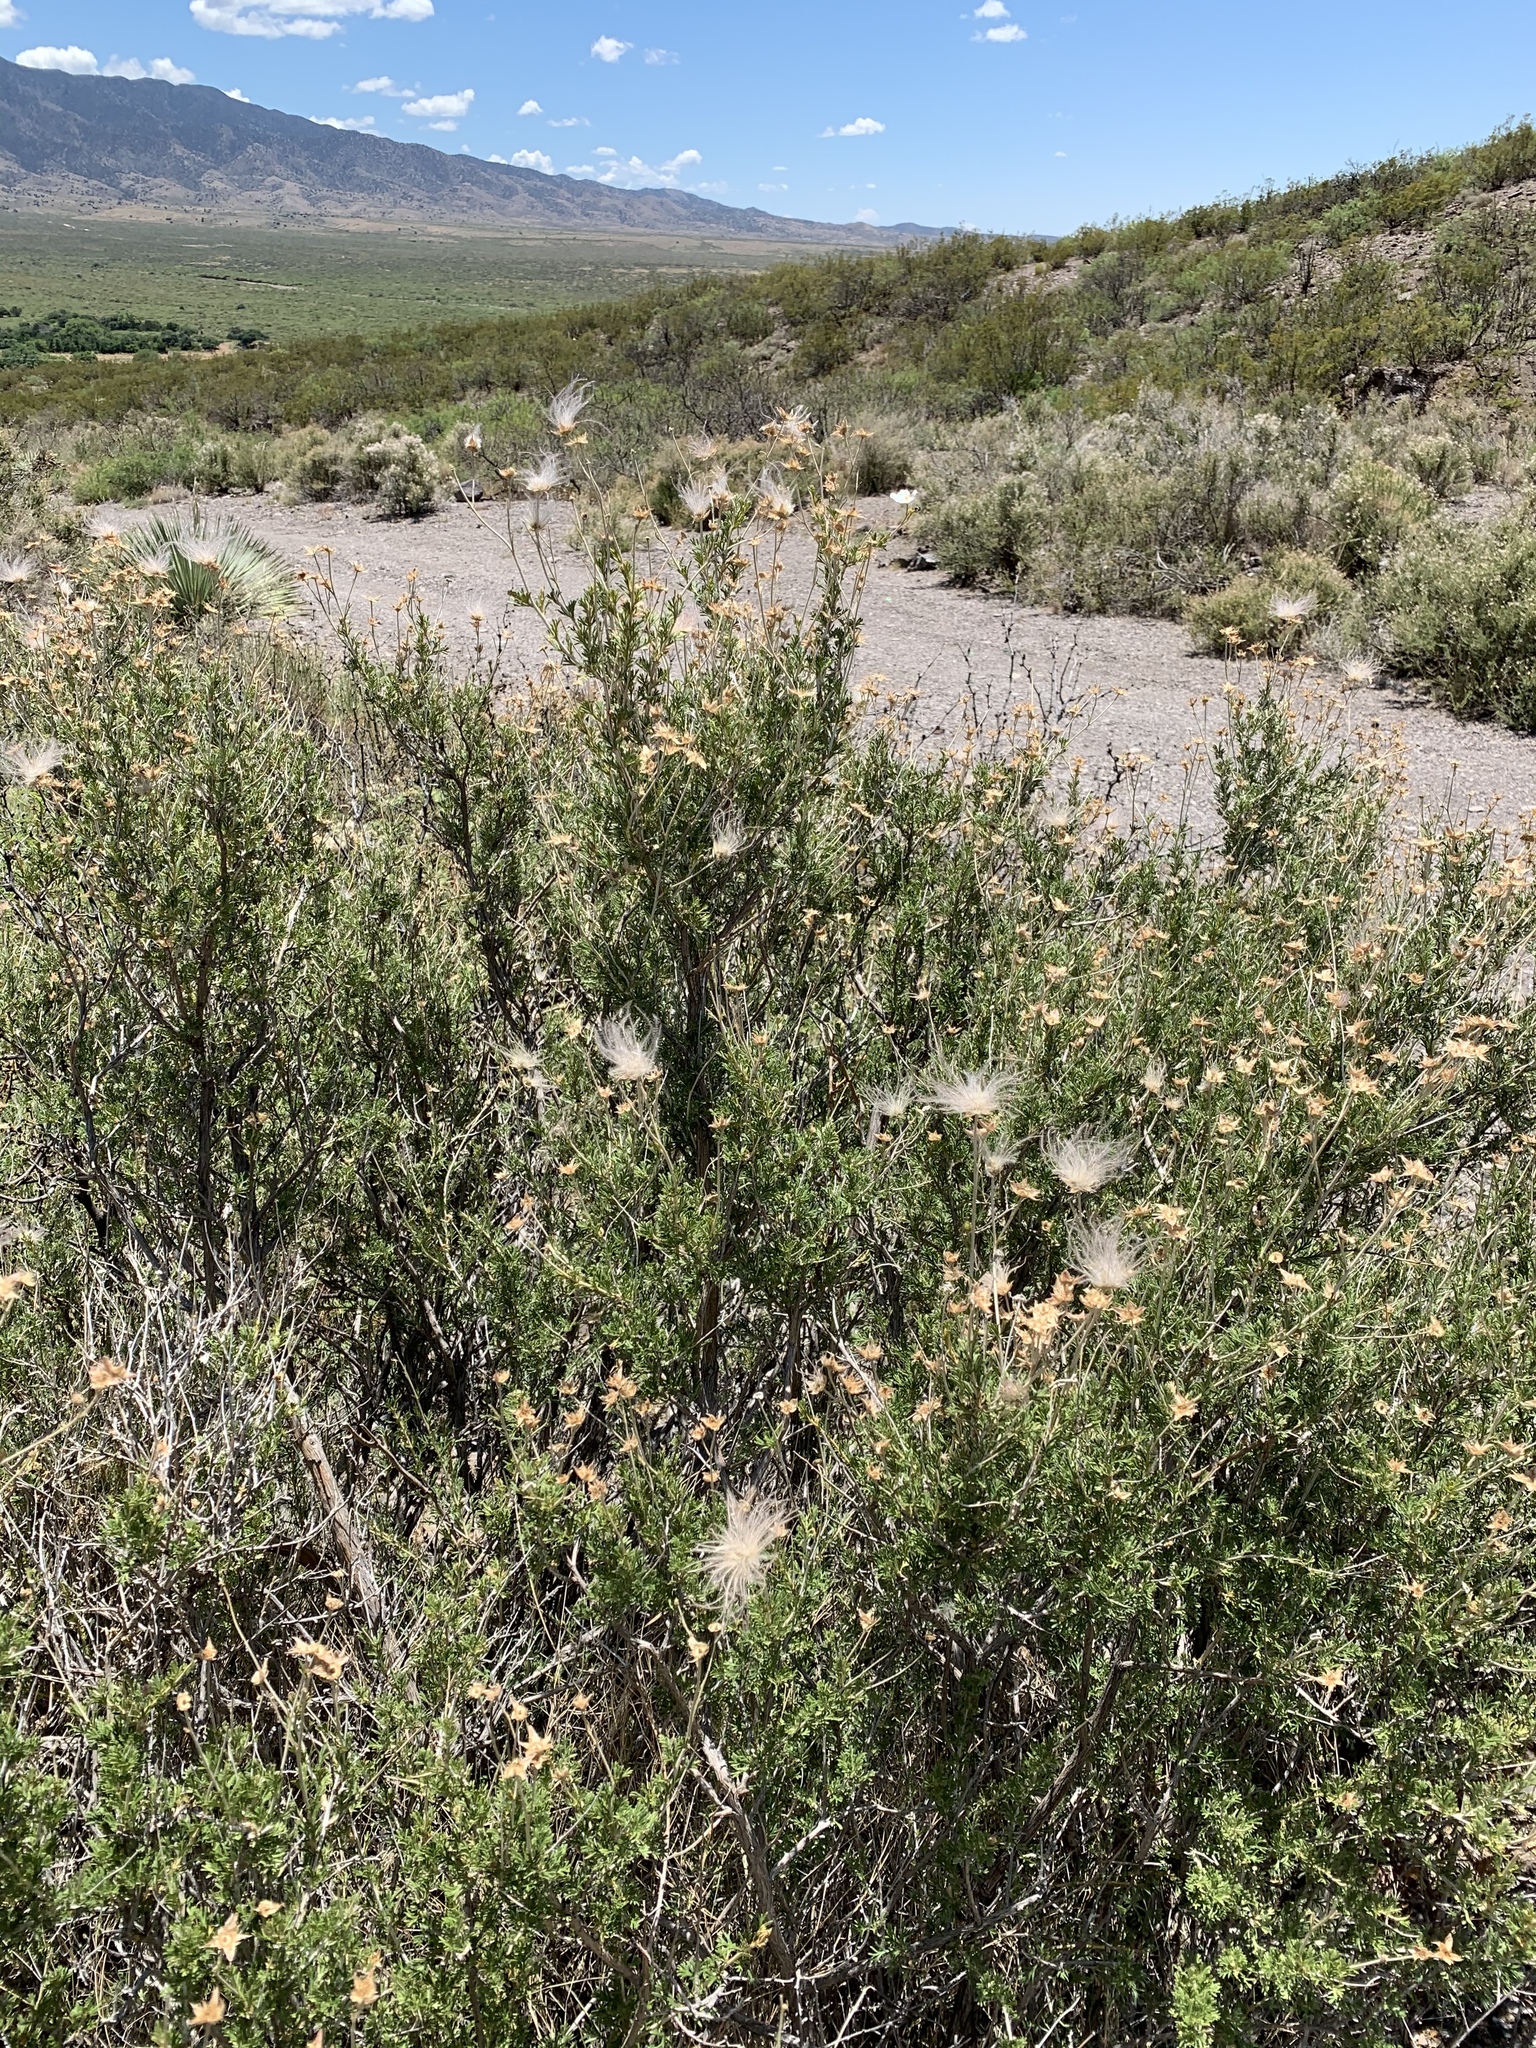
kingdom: Plantae
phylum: Tracheophyta
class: Magnoliopsida
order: Rosales
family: Rosaceae
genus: Fallugia
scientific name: Fallugia paradoxa
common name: Apache-plume
